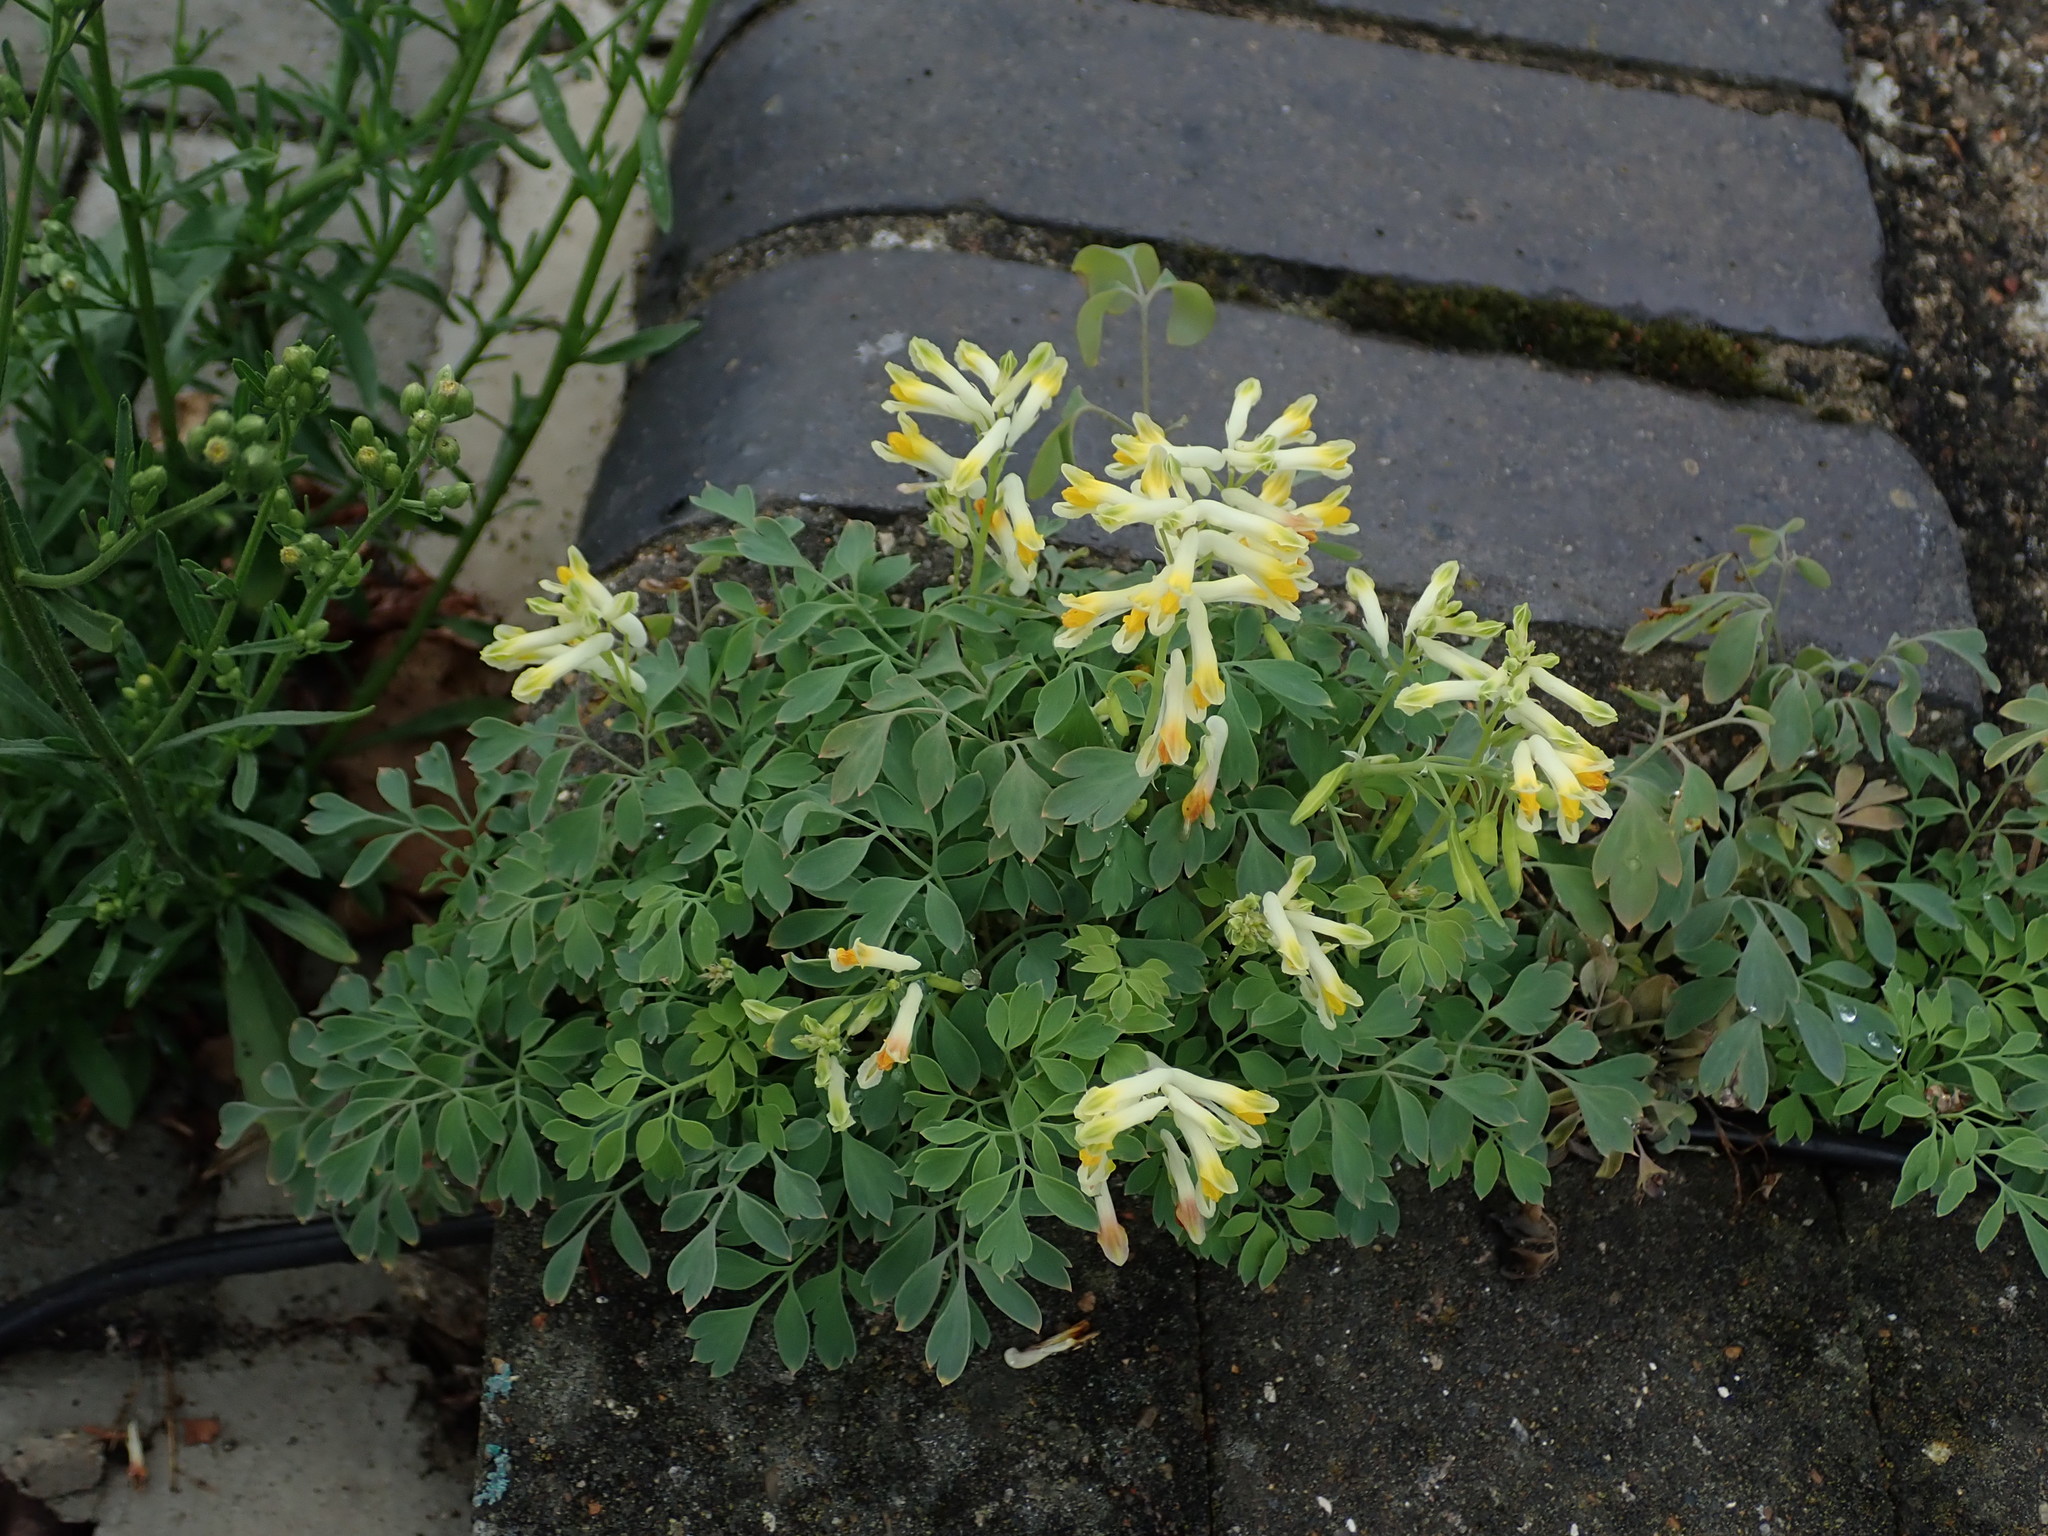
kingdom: Plantae
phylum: Tracheophyta
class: Magnoliopsida
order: Ranunculales
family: Papaveraceae
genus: Pseudofumaria
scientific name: Pseudofumaria lutea
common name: Yellow corydalis
